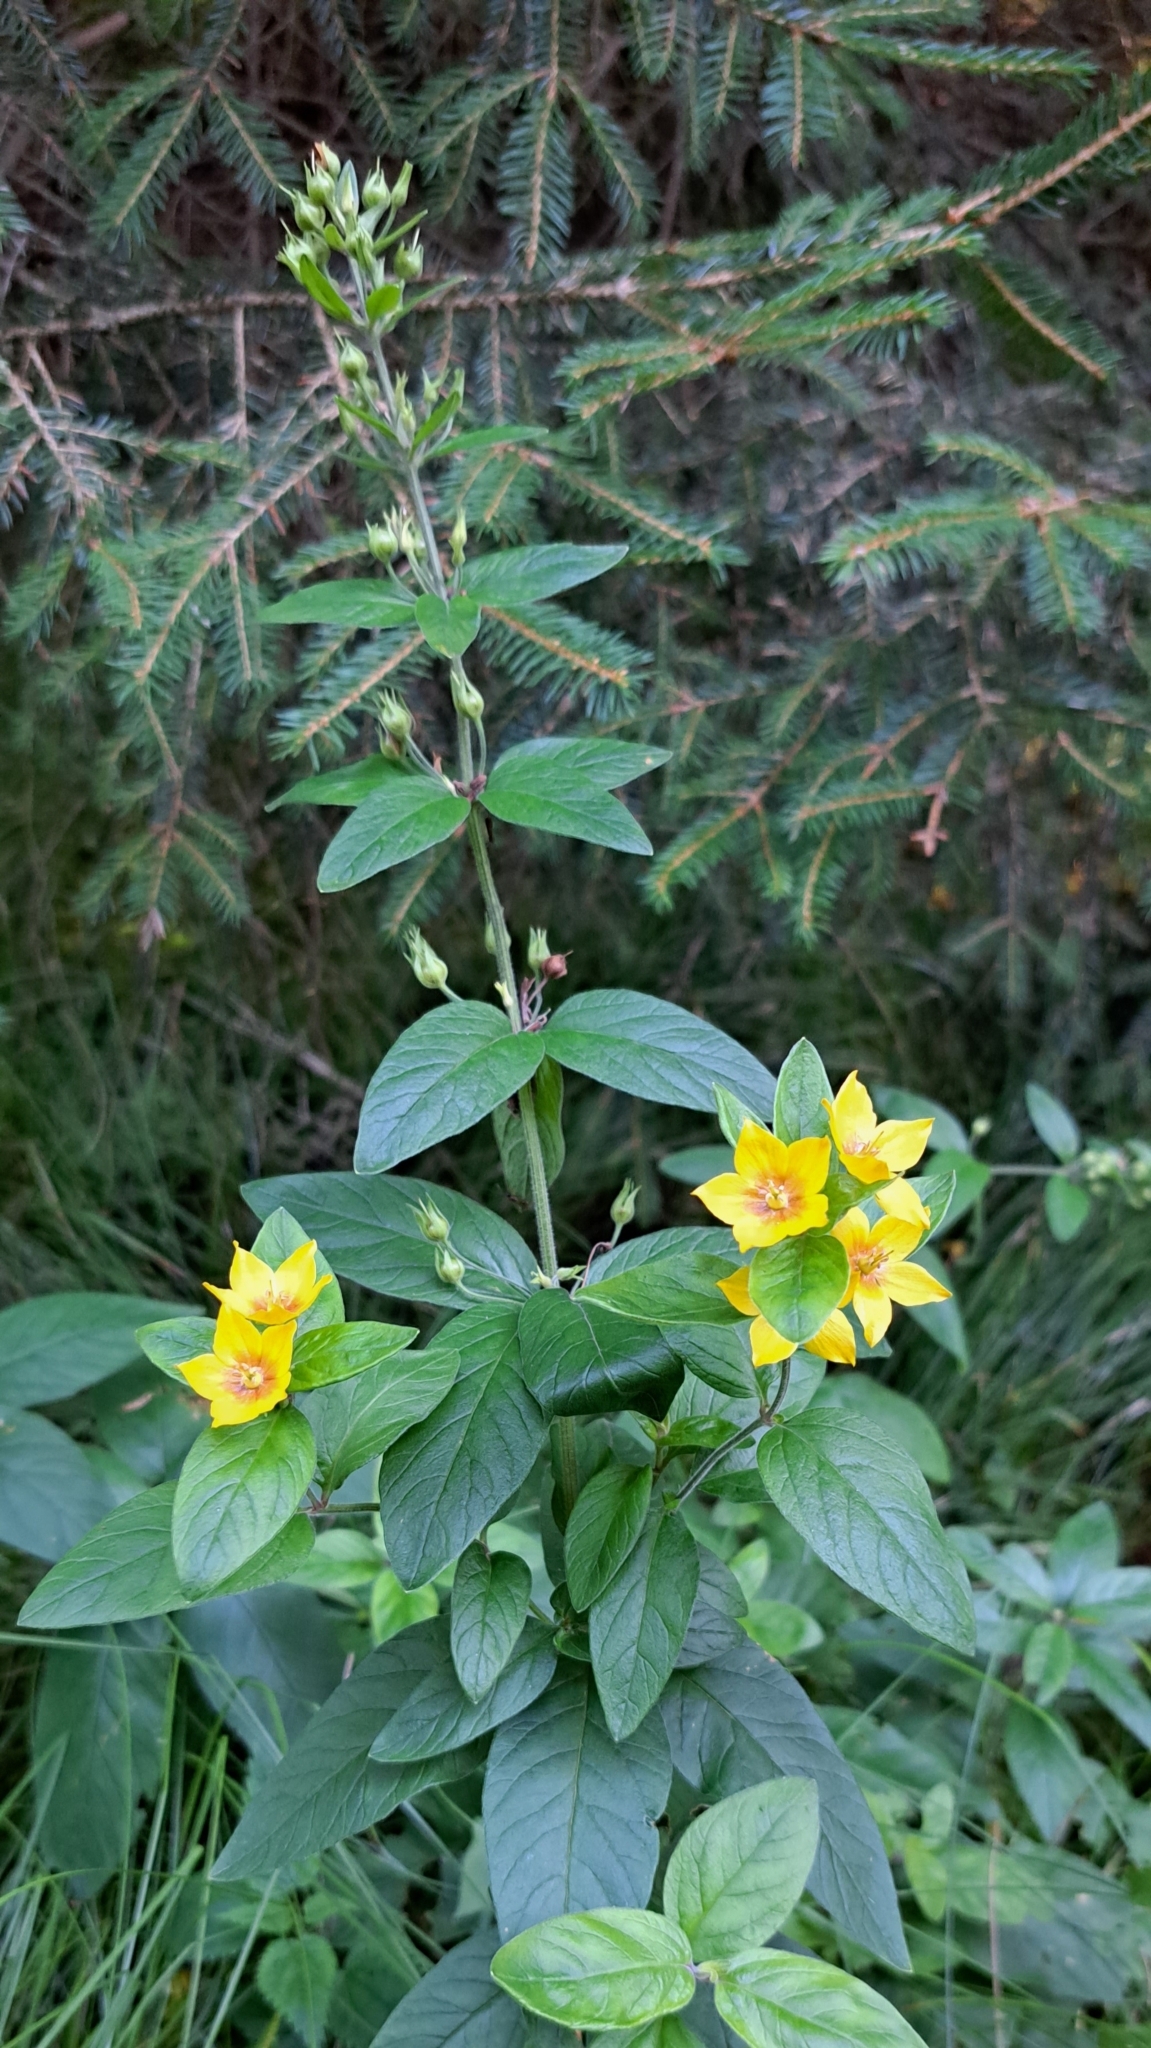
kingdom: Plantae
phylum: Tracheophyta
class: Magnoliopsida
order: Ericales
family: Primulaceae
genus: Lysimachia
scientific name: Lysimachia punctata
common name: Dotted loosestrife
